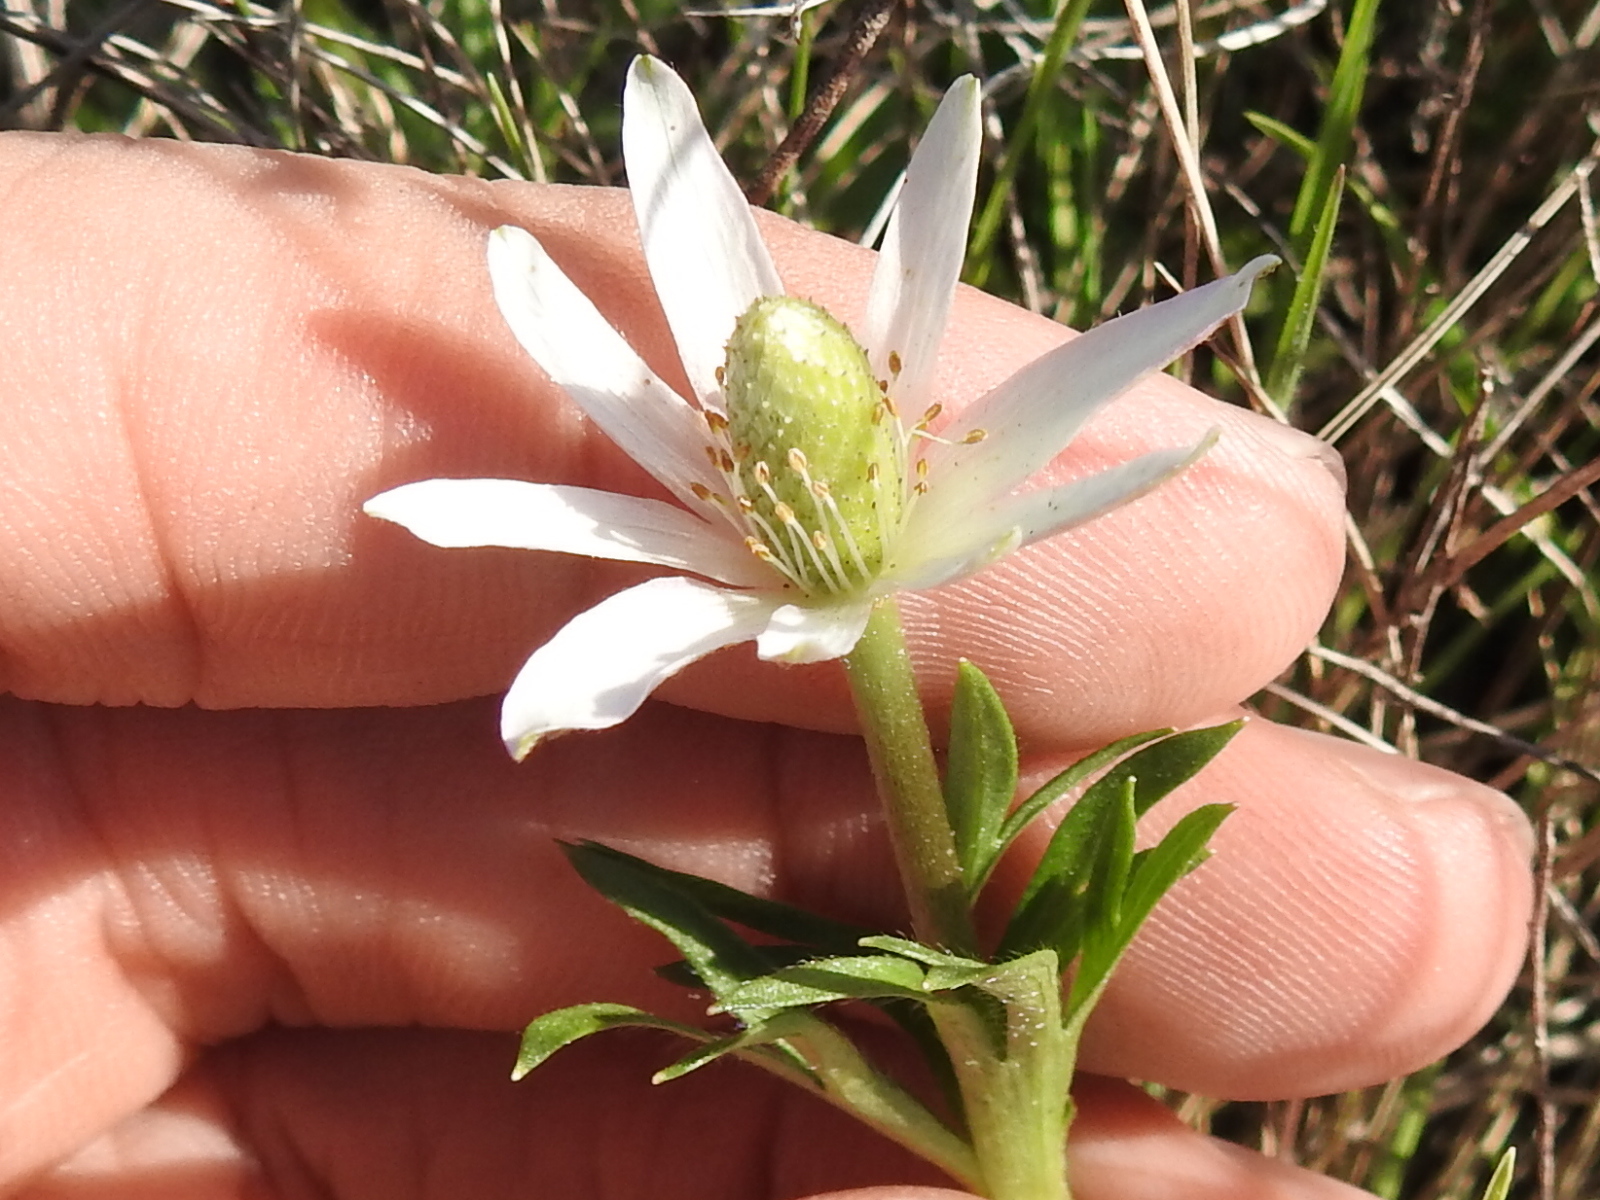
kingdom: Plantae
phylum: Tracheophyta
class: Magnoliopsida
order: Ranunculales
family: Ranunculaceae
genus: Anemone
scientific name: Anemone berlandieri
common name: Ten-petal anemone
